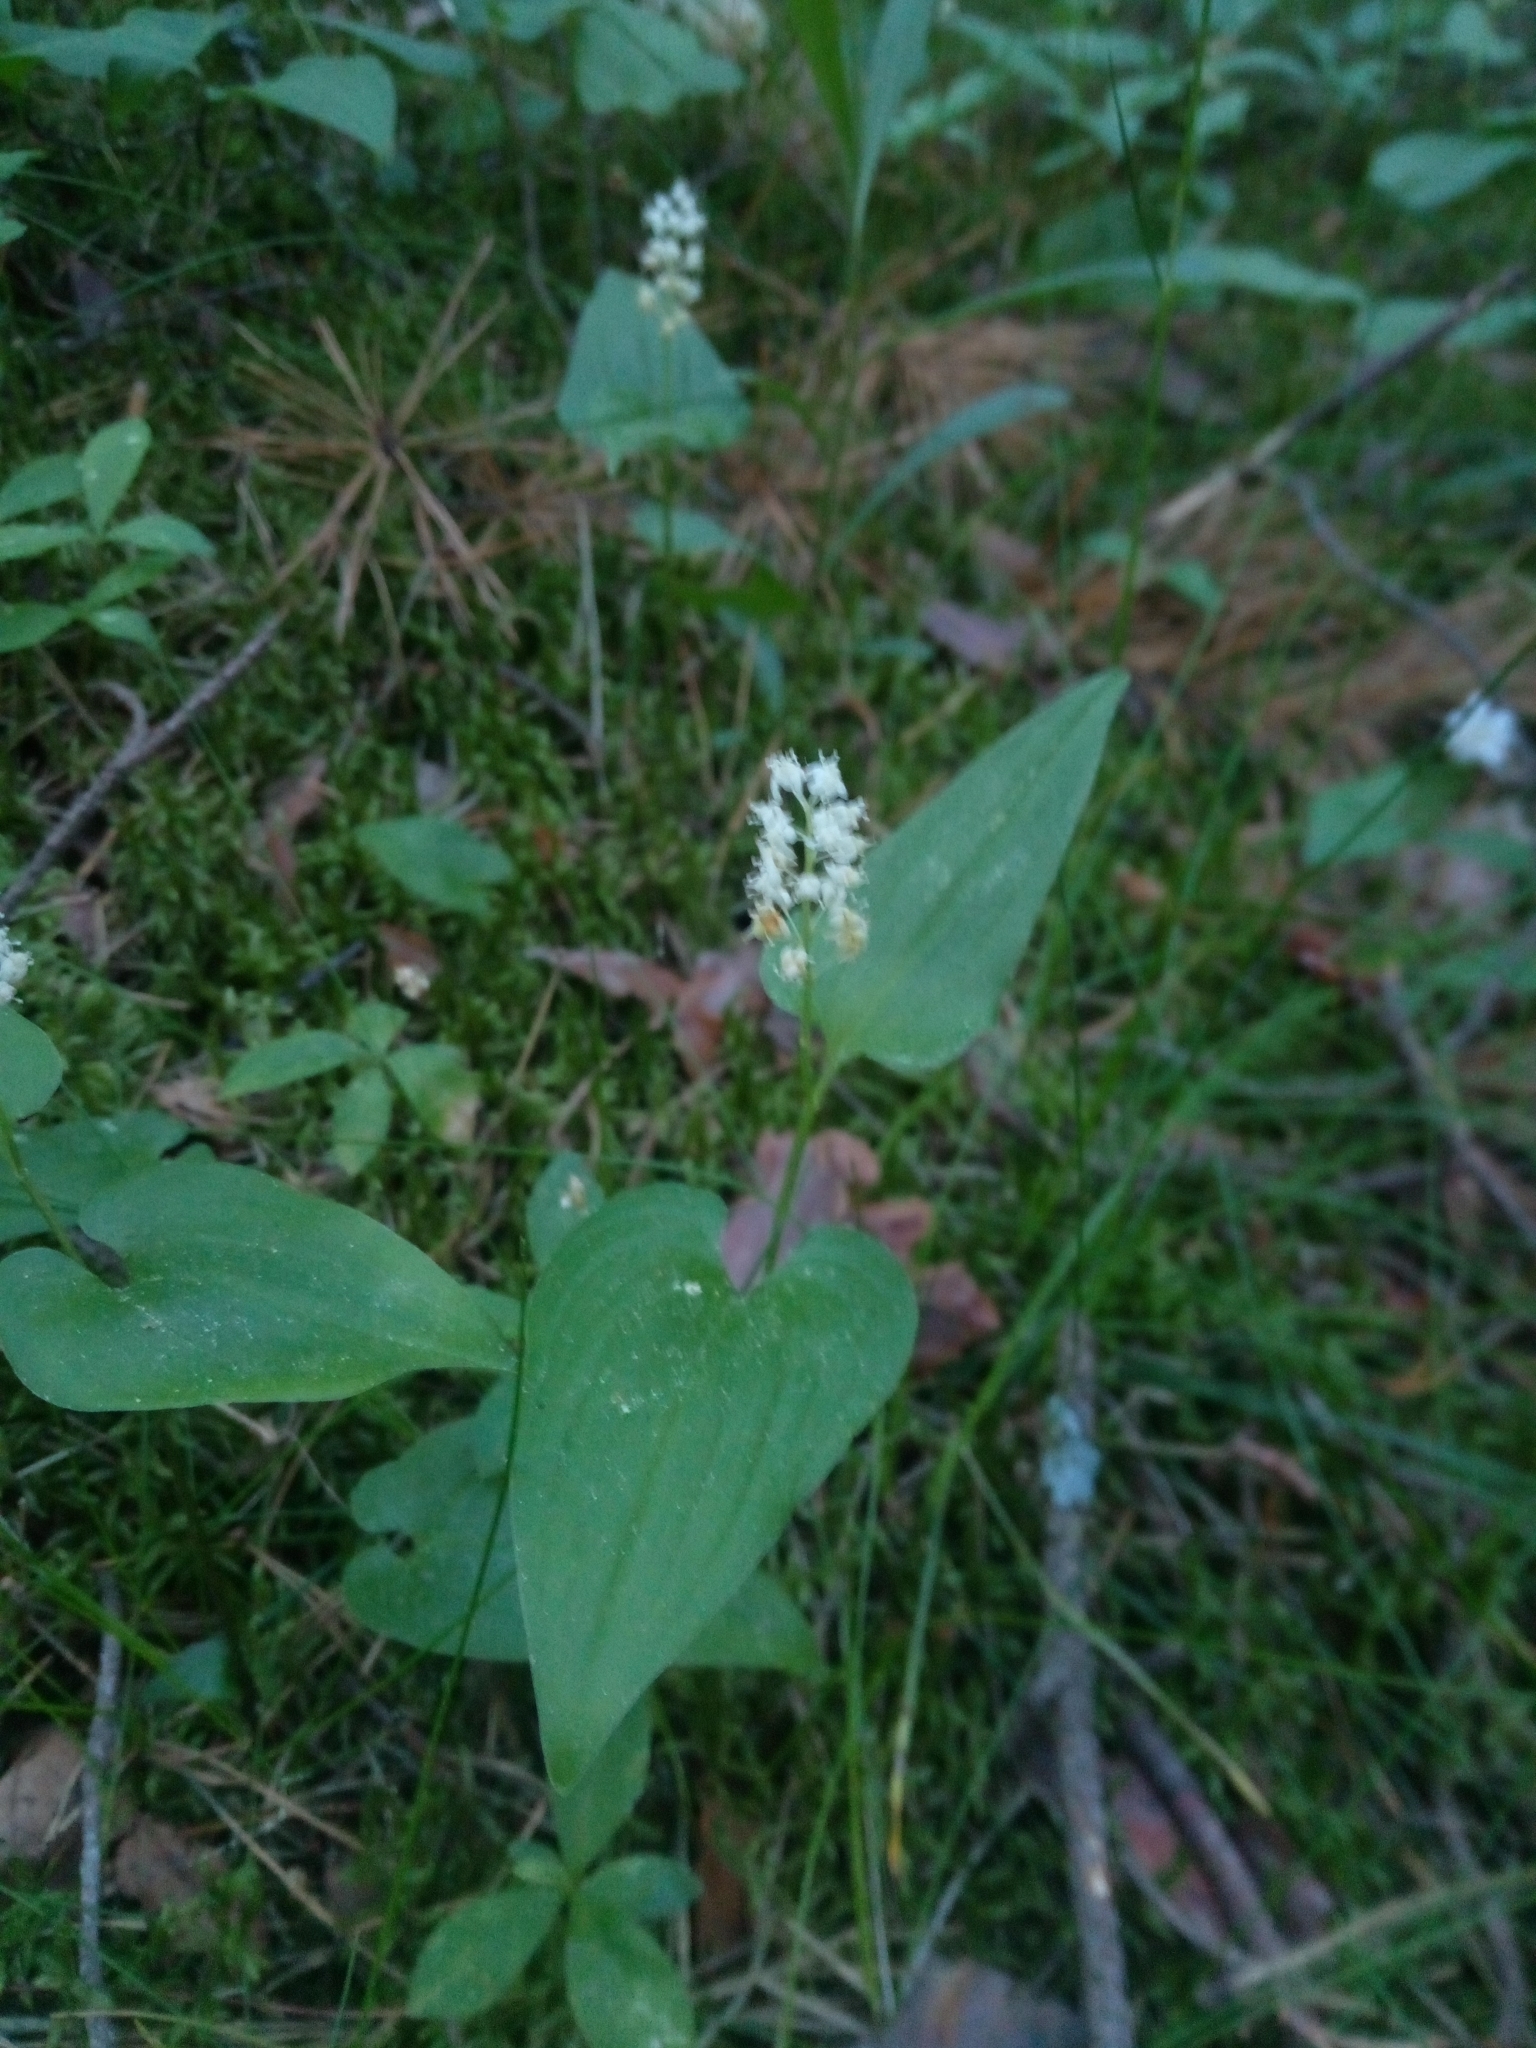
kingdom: Plantae
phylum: Tracheophyta
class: Liliopsida
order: Asparagales
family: Asparagaceae
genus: Maianthemum
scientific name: Maianthemum bifolium
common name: May lily
